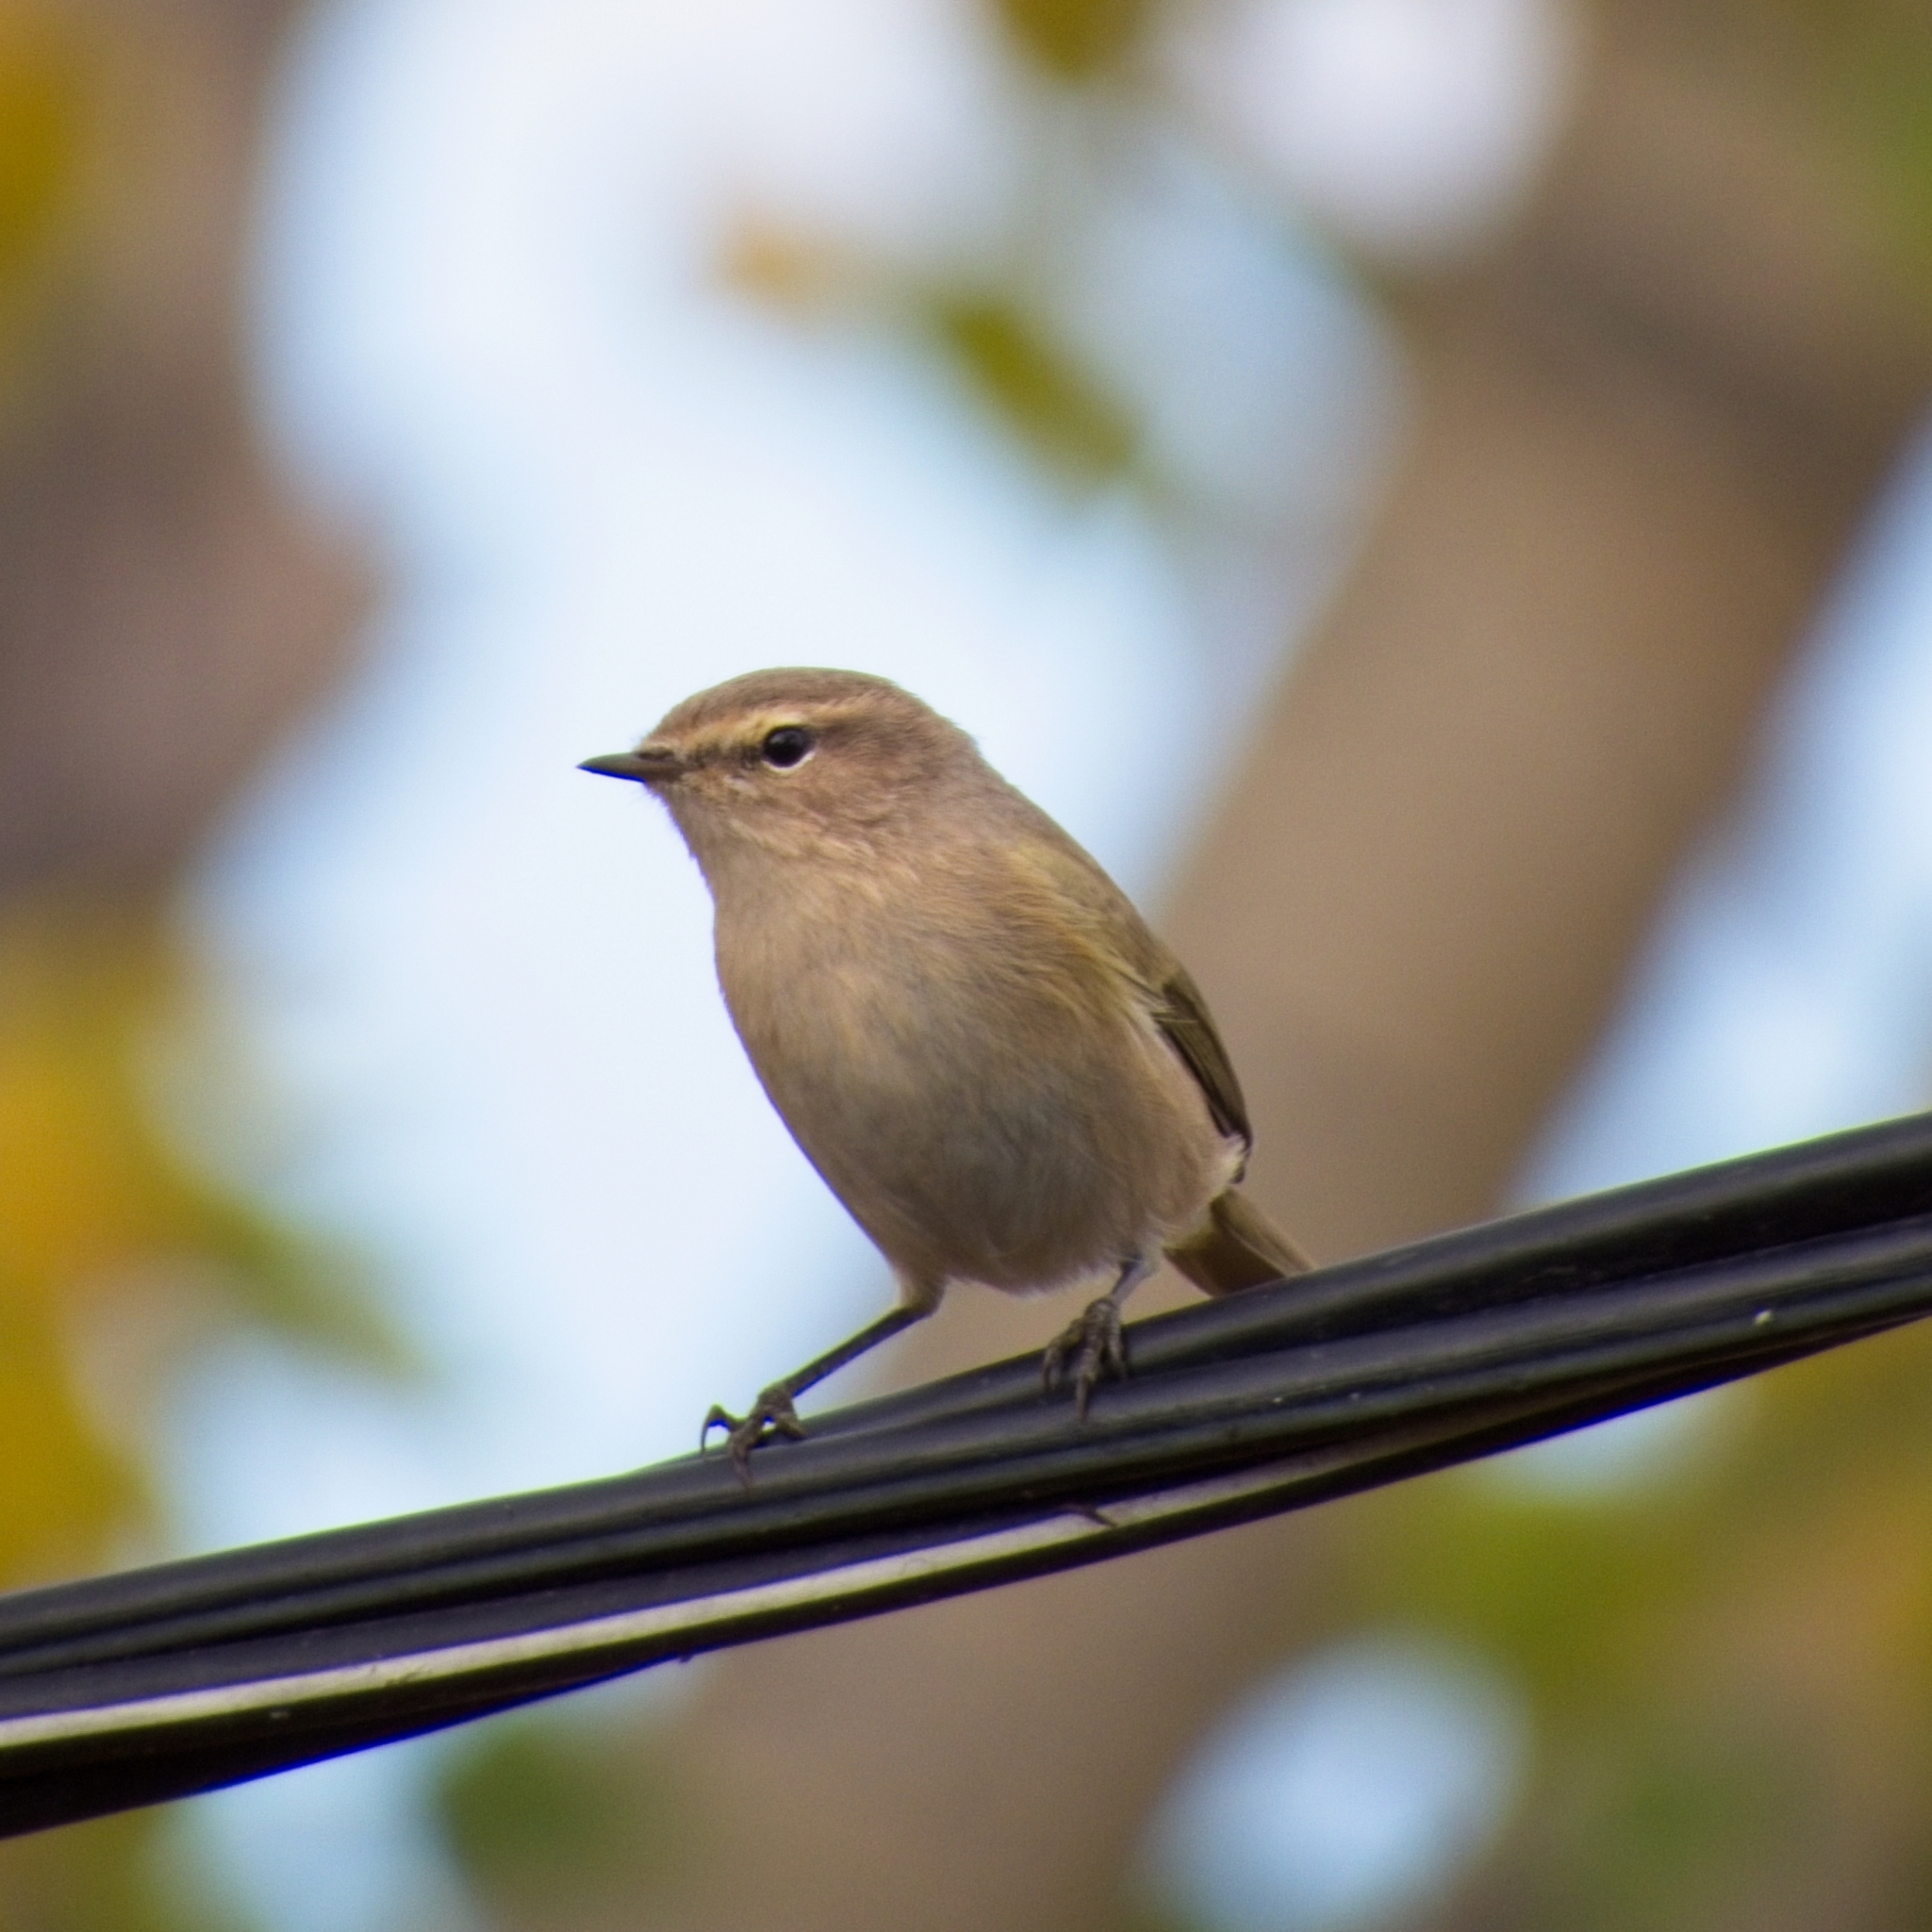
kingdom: Animalia
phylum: Chordata
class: Aves
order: Passeriformes
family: Phylloscopidae
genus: Phylloscopus
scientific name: Phylloscopus collybita
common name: Common chiffchaff
